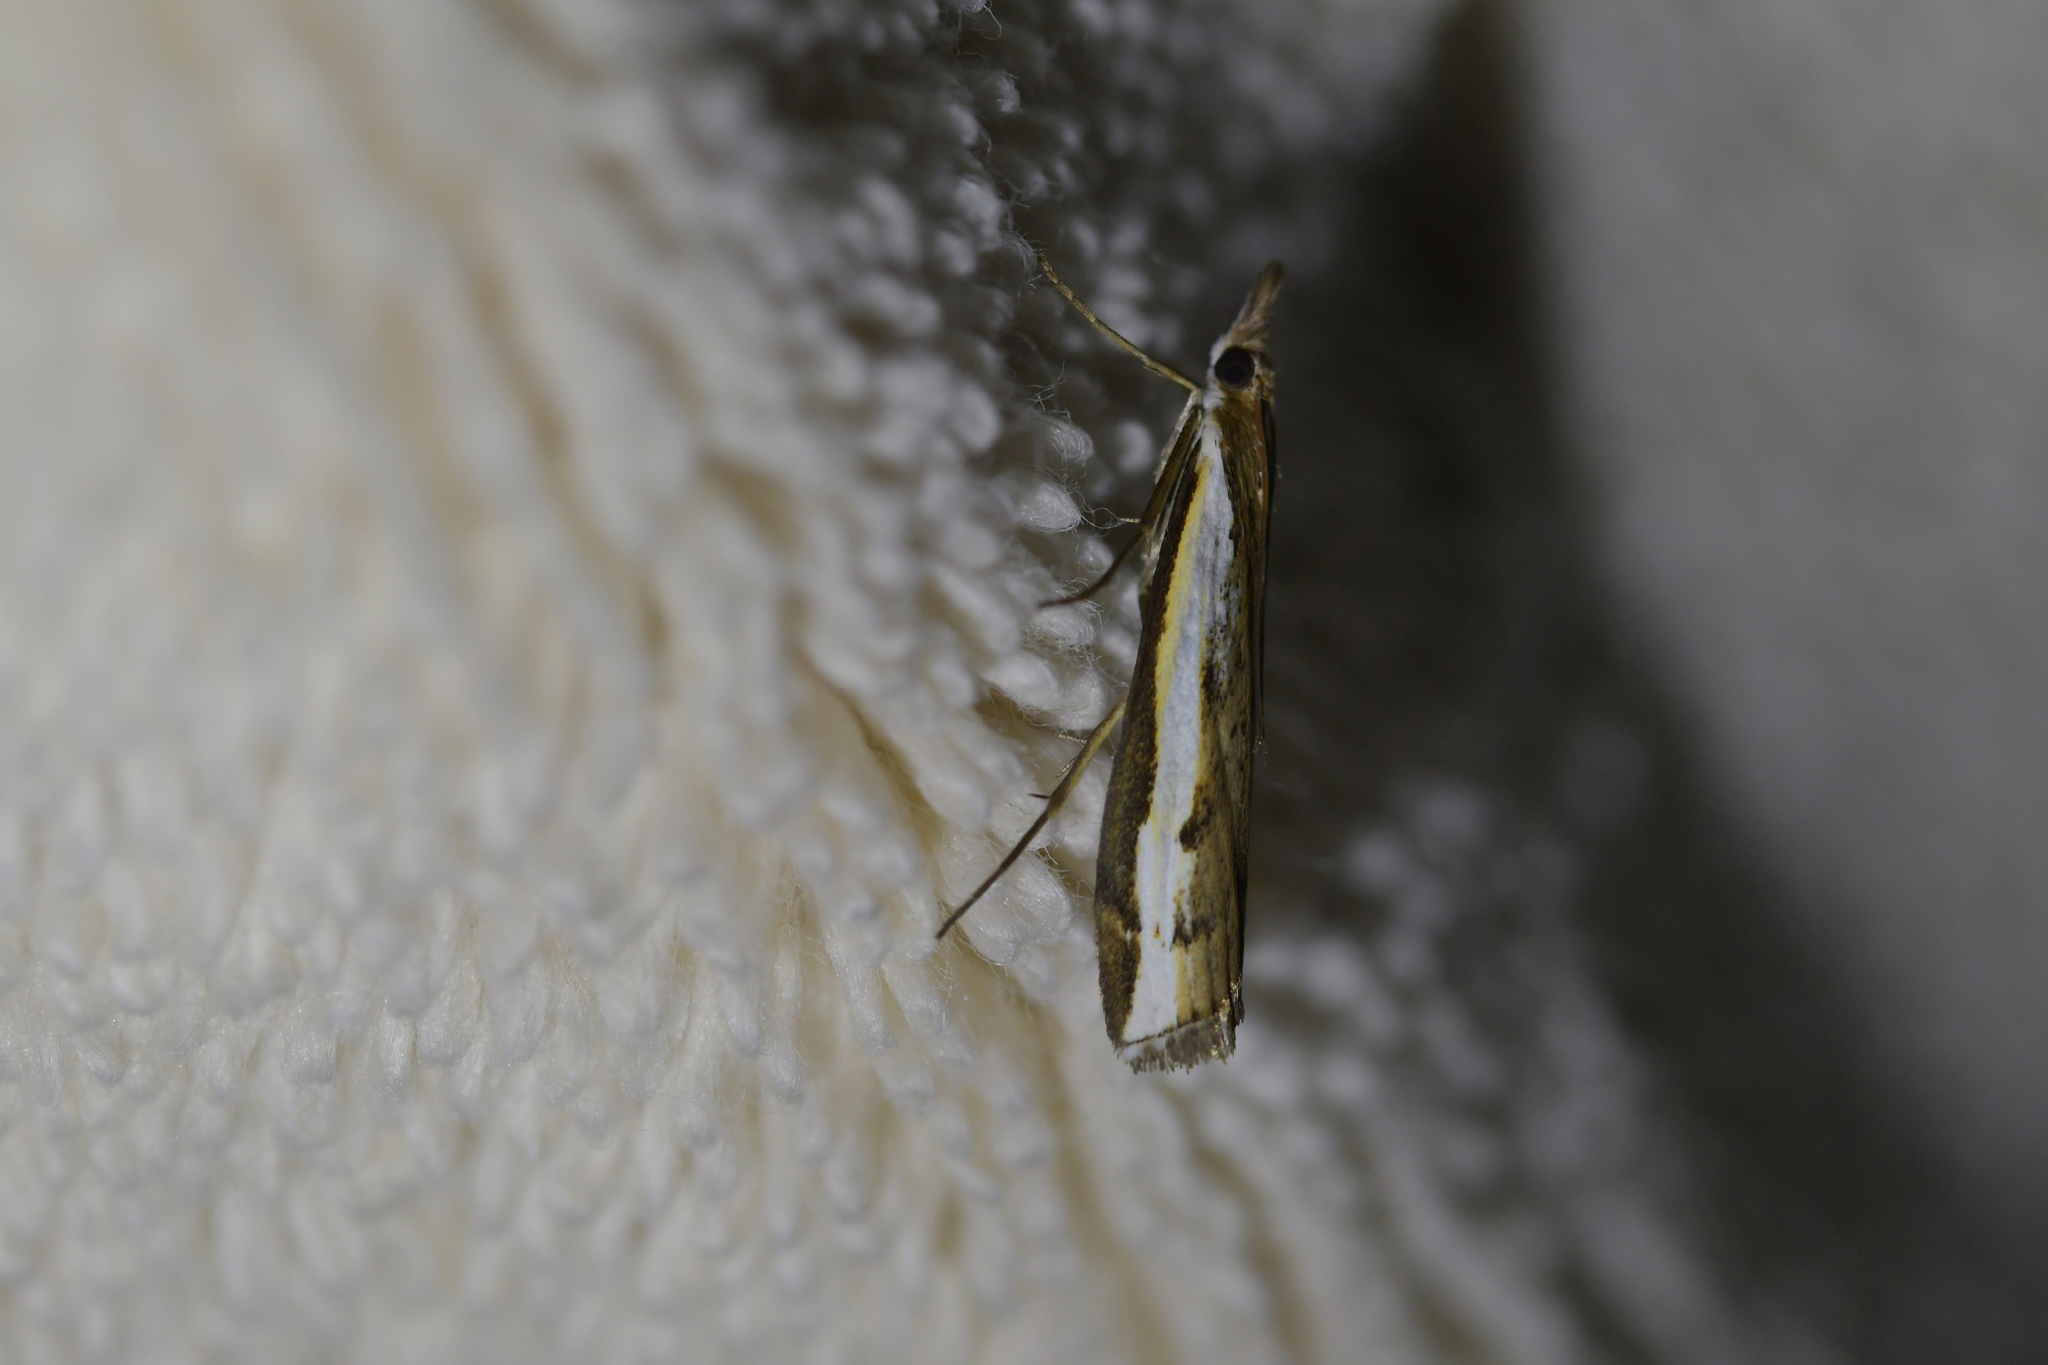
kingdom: Animalia
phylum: Arthropoda
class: Insecta
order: Lepidoptera
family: Crambidae
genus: Orocrambus
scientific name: Orocrambus flexuosellus
